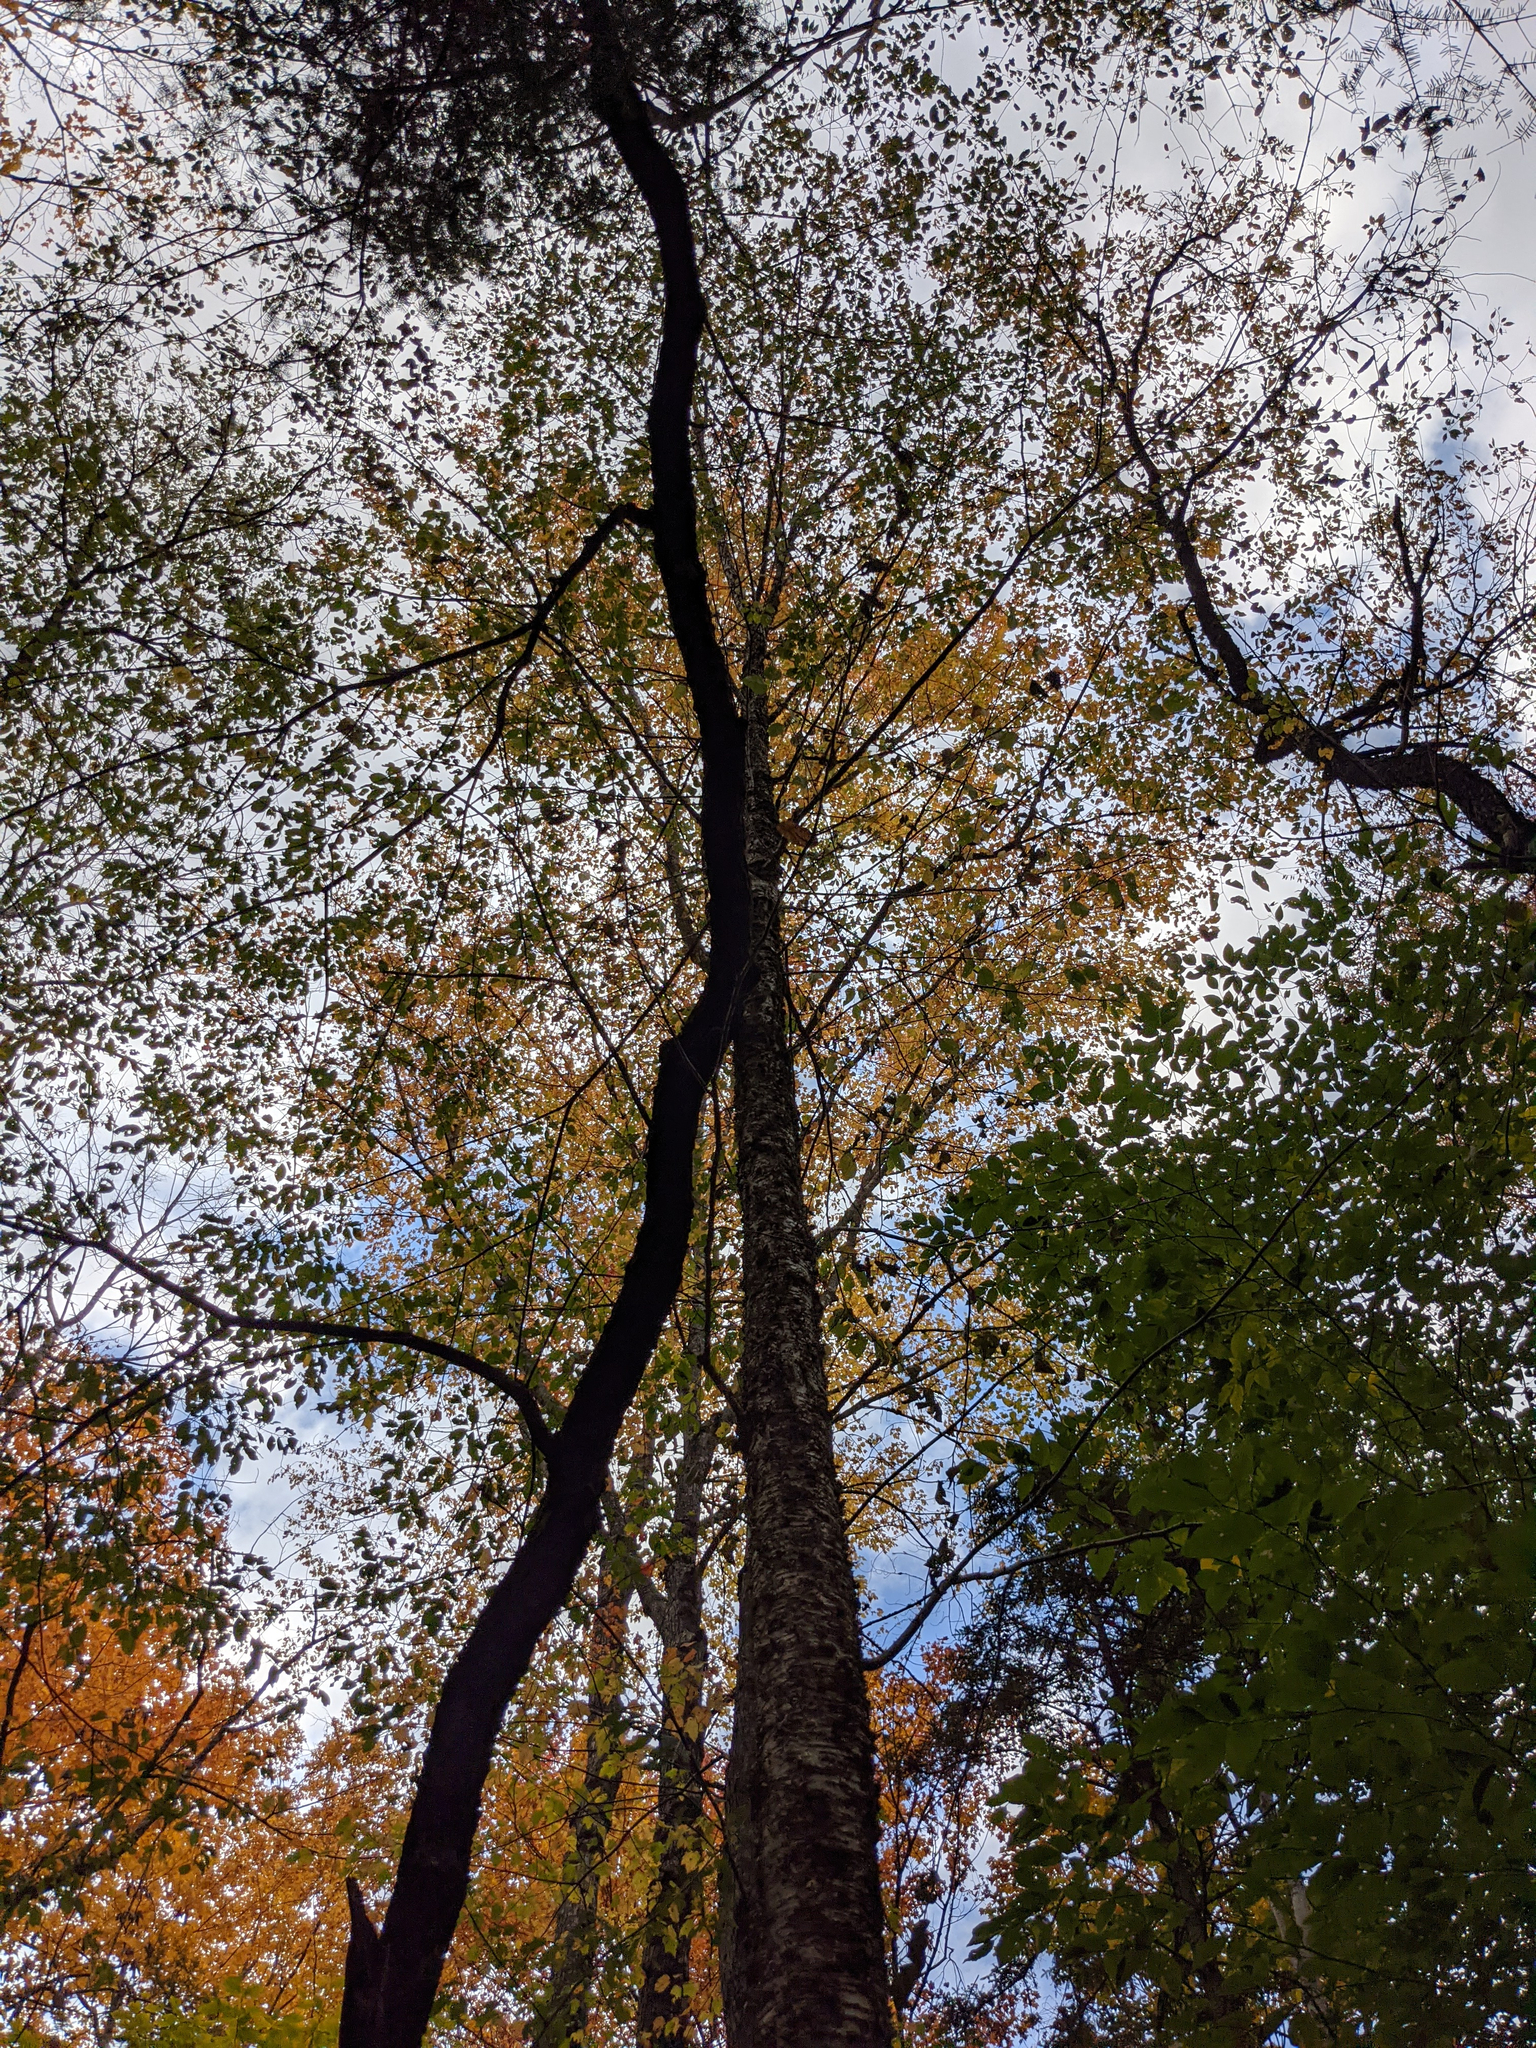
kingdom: Plantae
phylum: Tracheophyta
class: Magnoliopsida
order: Fagales
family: Betulaceae
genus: Betula
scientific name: Betula alleghaniensis
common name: Yellow birch
